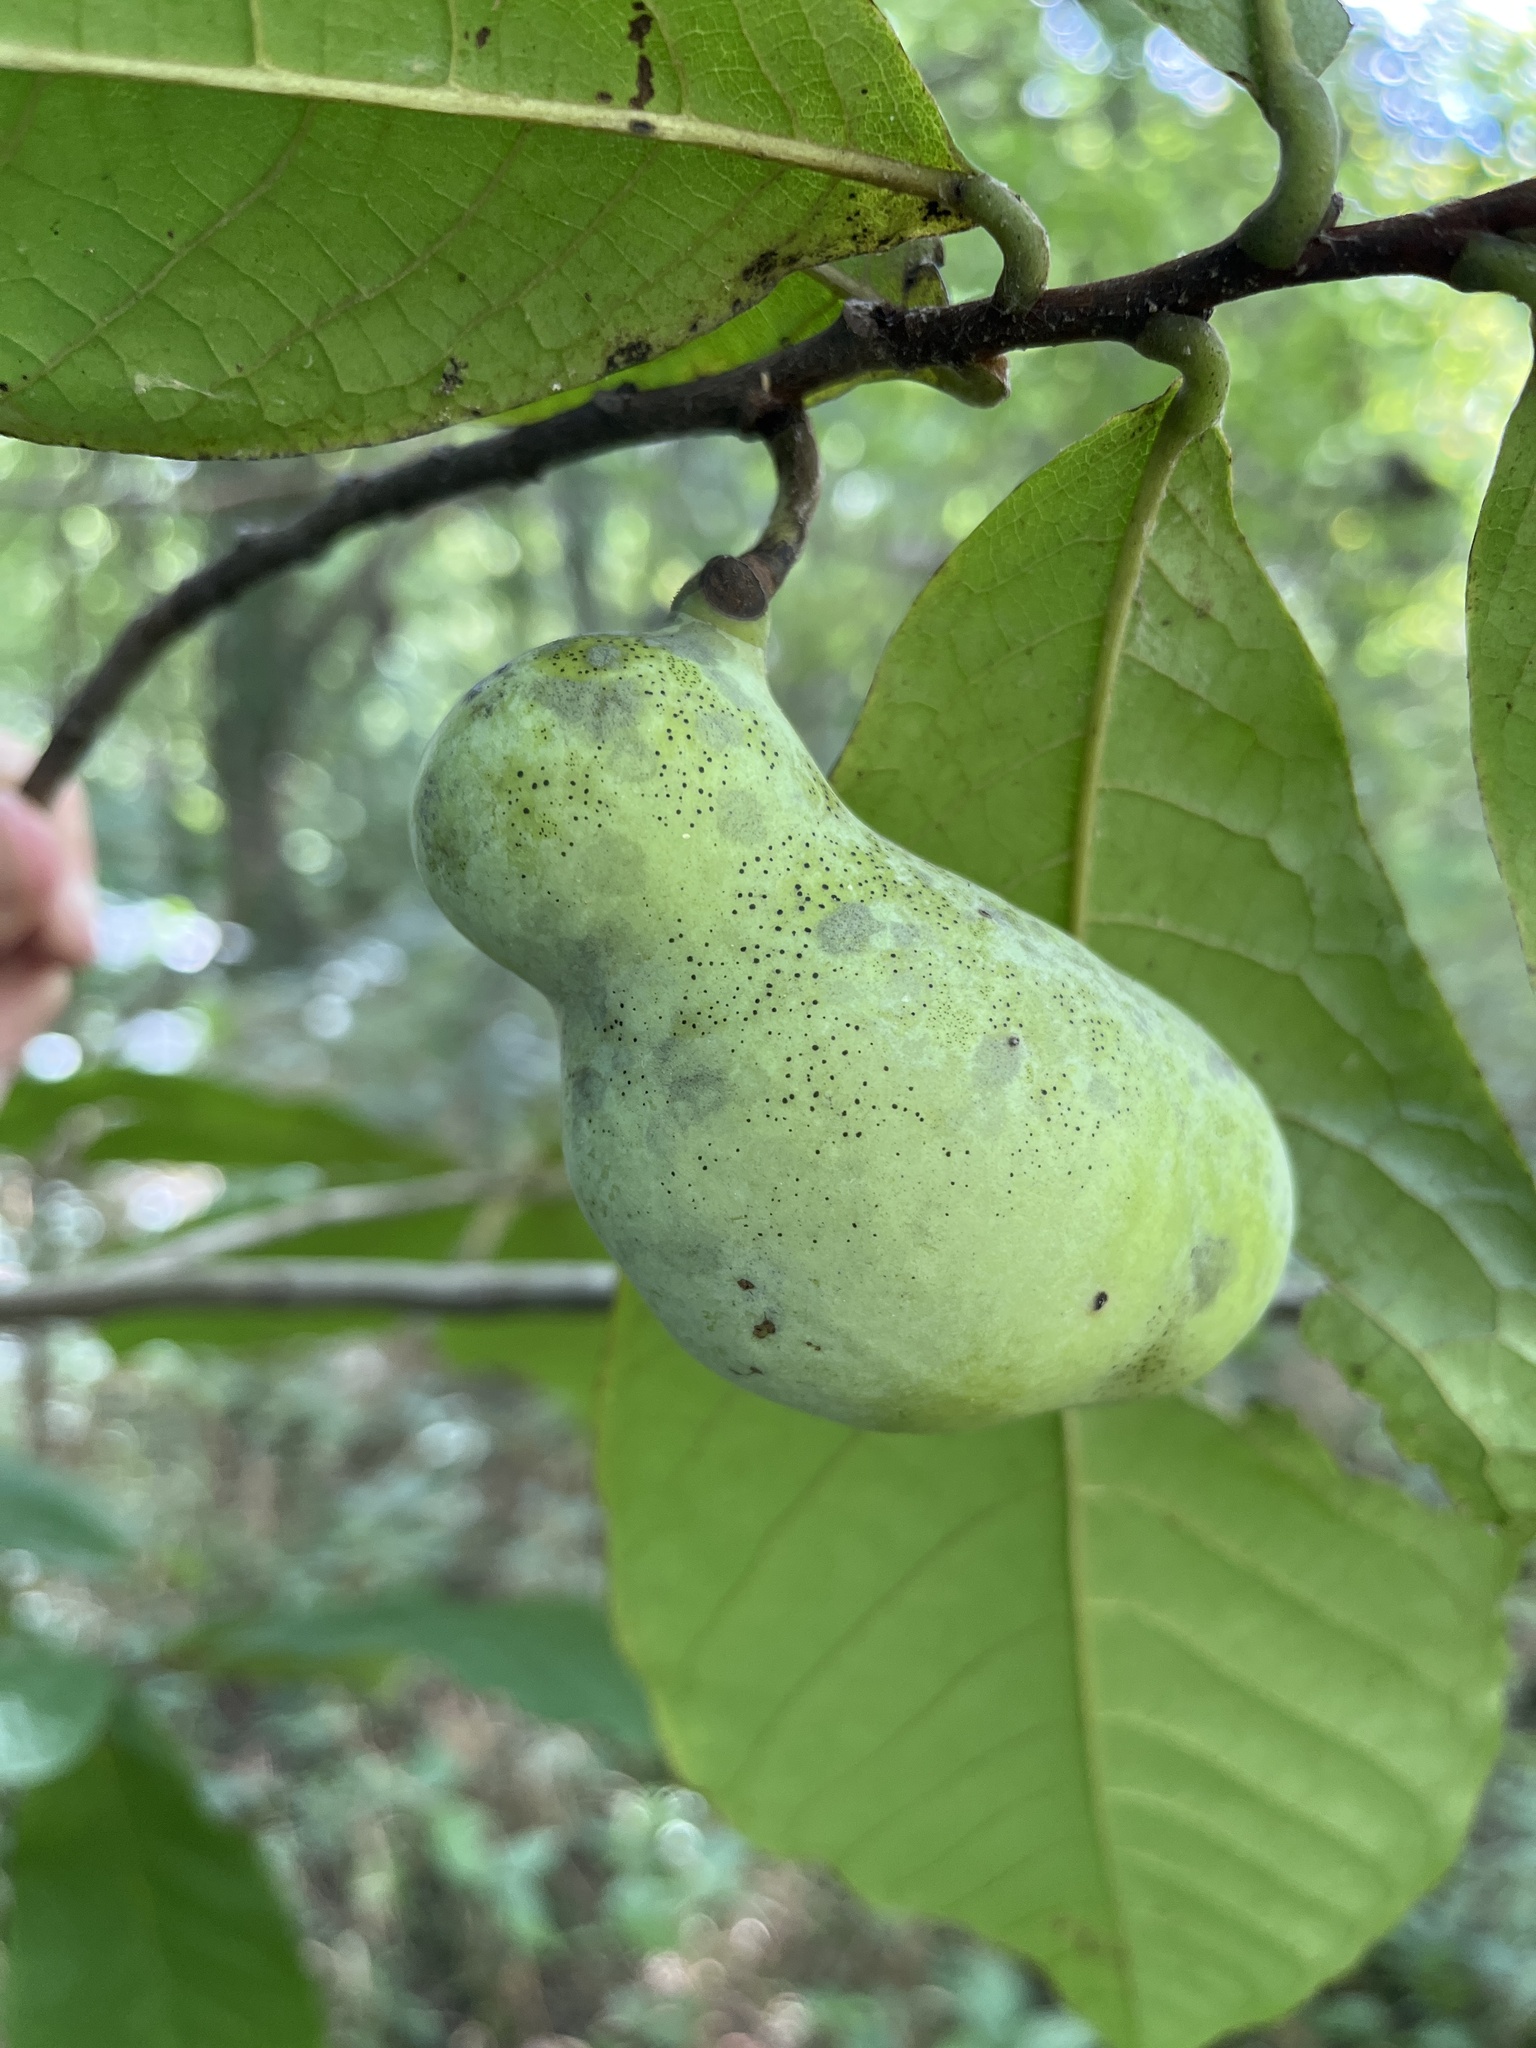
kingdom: Plantae
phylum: Tracheophyta
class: Magnoliopsida
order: Magnoliales
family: Annonaceae
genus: Asimina
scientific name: Asimina triloba
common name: Dog-banana
